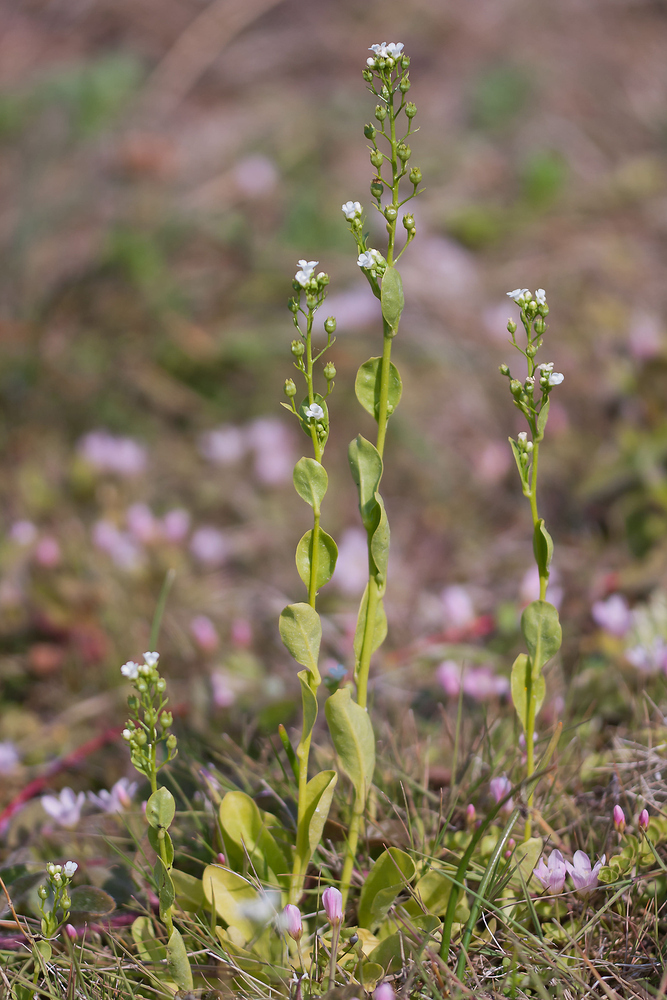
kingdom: Plantae
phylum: Tracheophyta
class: Magnoliopsida
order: Ericales
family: Primulaceae
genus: Samolus
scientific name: Samolus valerandi
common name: Brookweed
